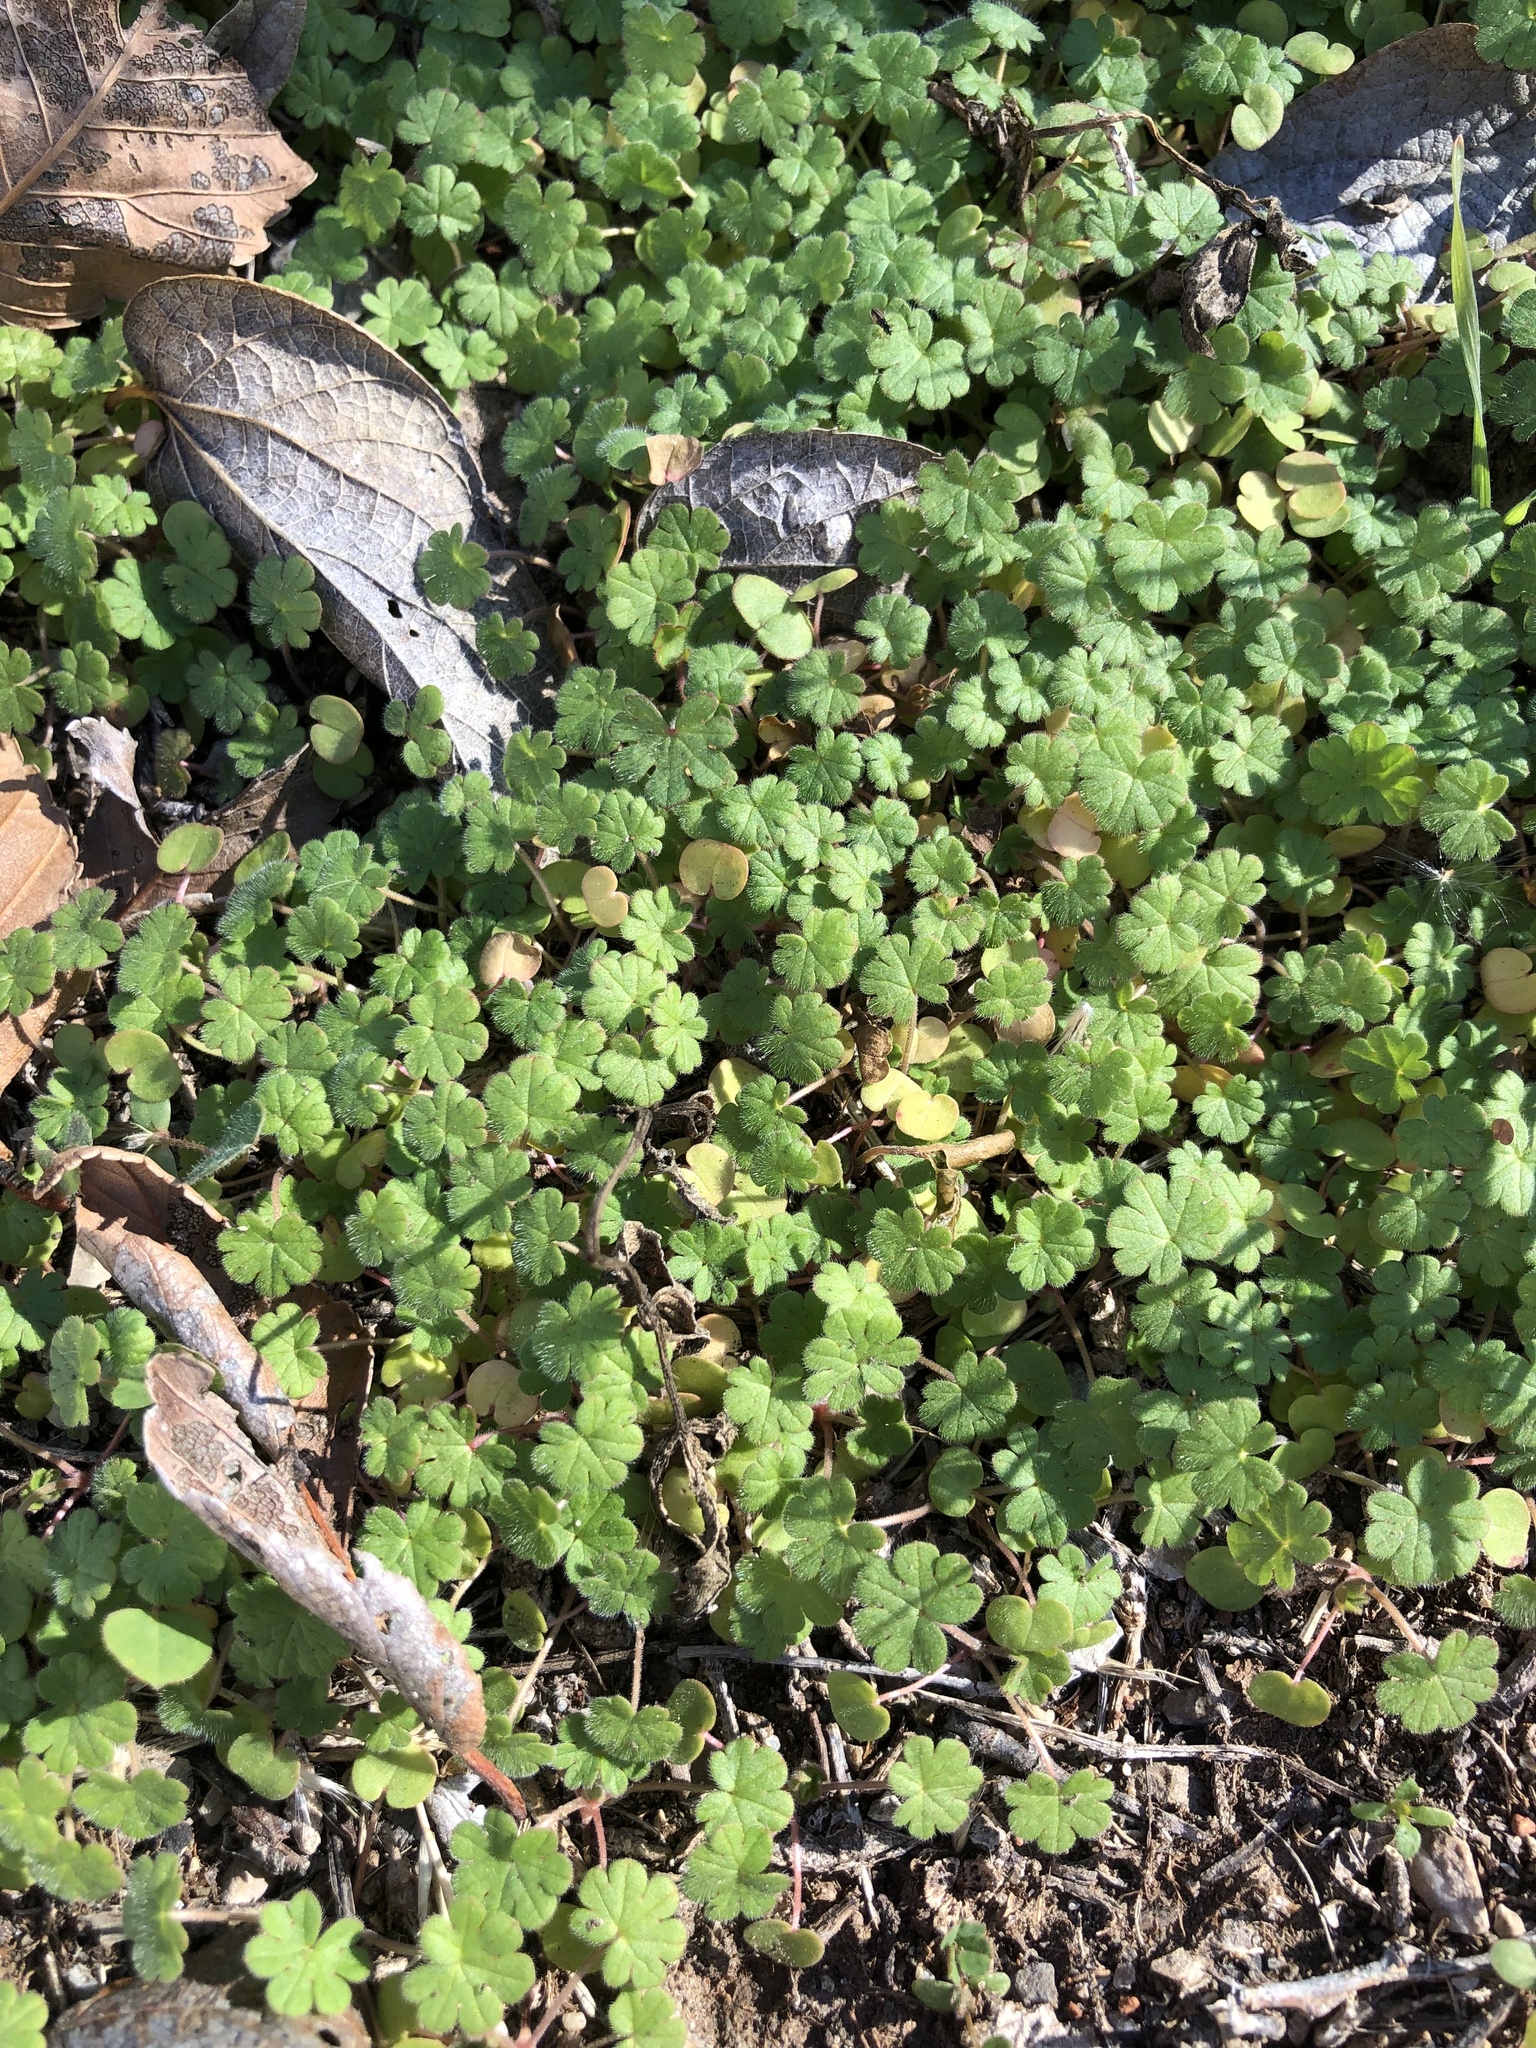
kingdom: Plantae
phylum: Tracheophyta
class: Magnoliopsida
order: Lamiales
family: Lamiaceae
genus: Lamium
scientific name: Lamium amplexicaule
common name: Henbit dead-nettle
